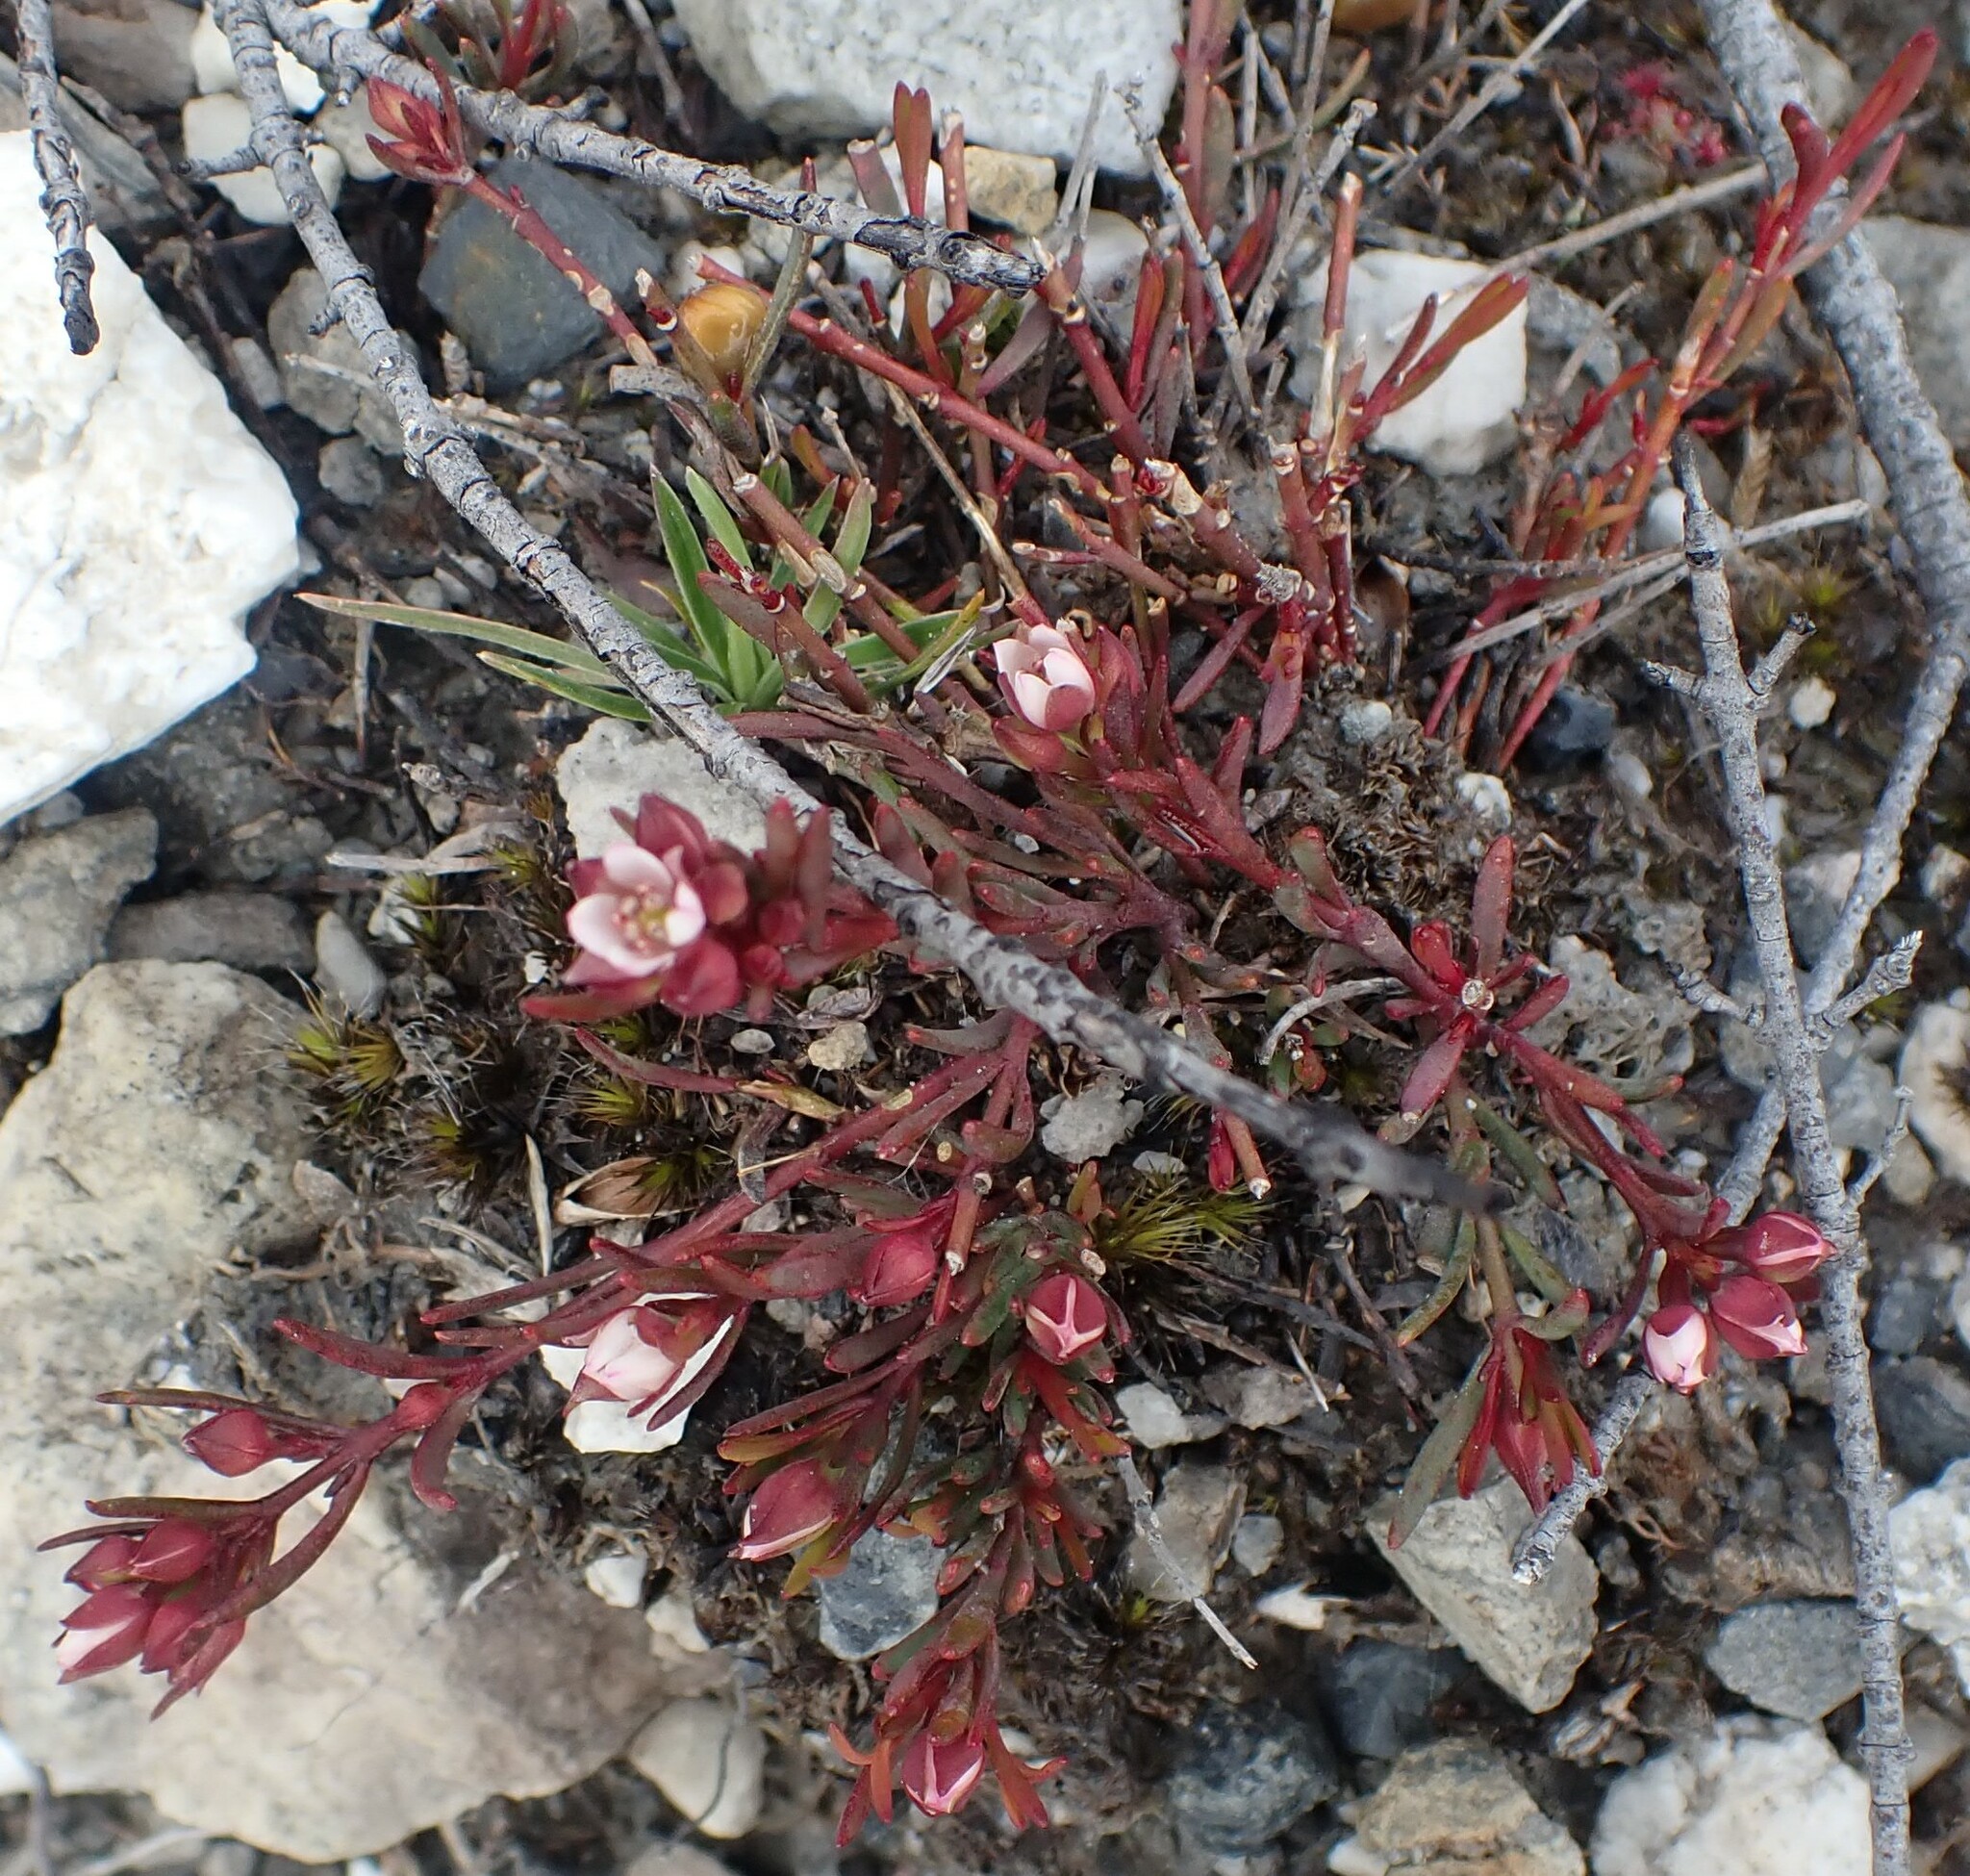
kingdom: Plantae
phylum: Tracheophyta
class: Magnoliopsida
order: Sapindales
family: Rutaceae
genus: Boronia
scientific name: Boronia parviflora
